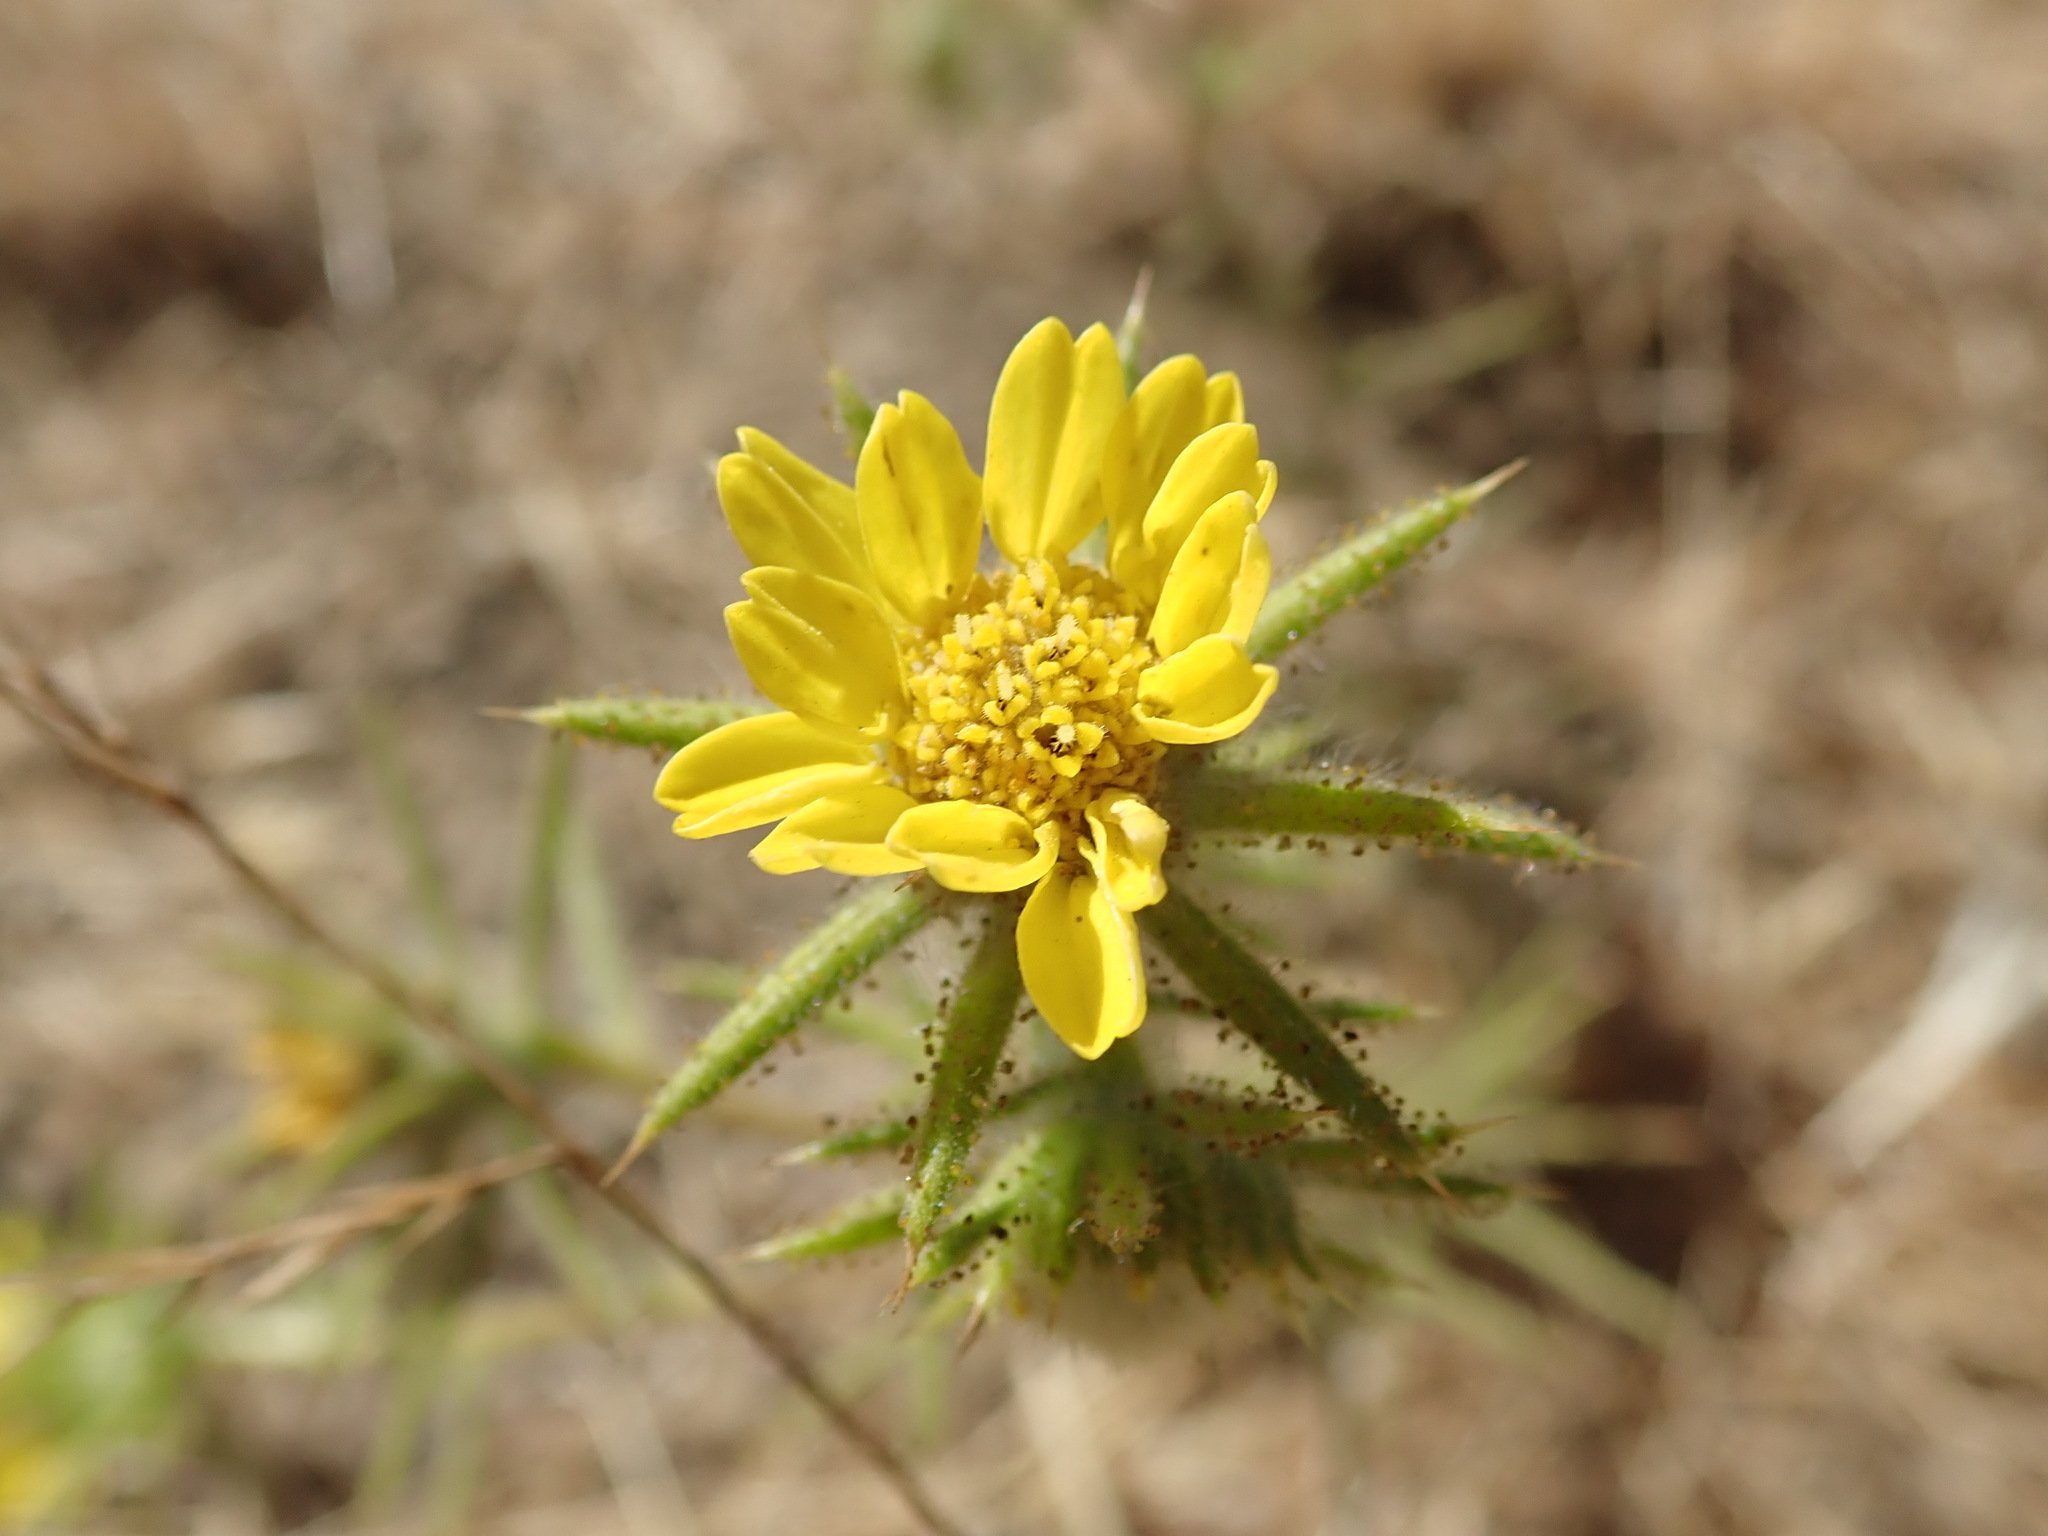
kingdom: Plantae
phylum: Tracheophyta
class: Magnoliopsida
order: Asterales
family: Asteraceae
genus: Centromadia
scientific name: Centromadia fitchii
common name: Fitch's spikeweed
